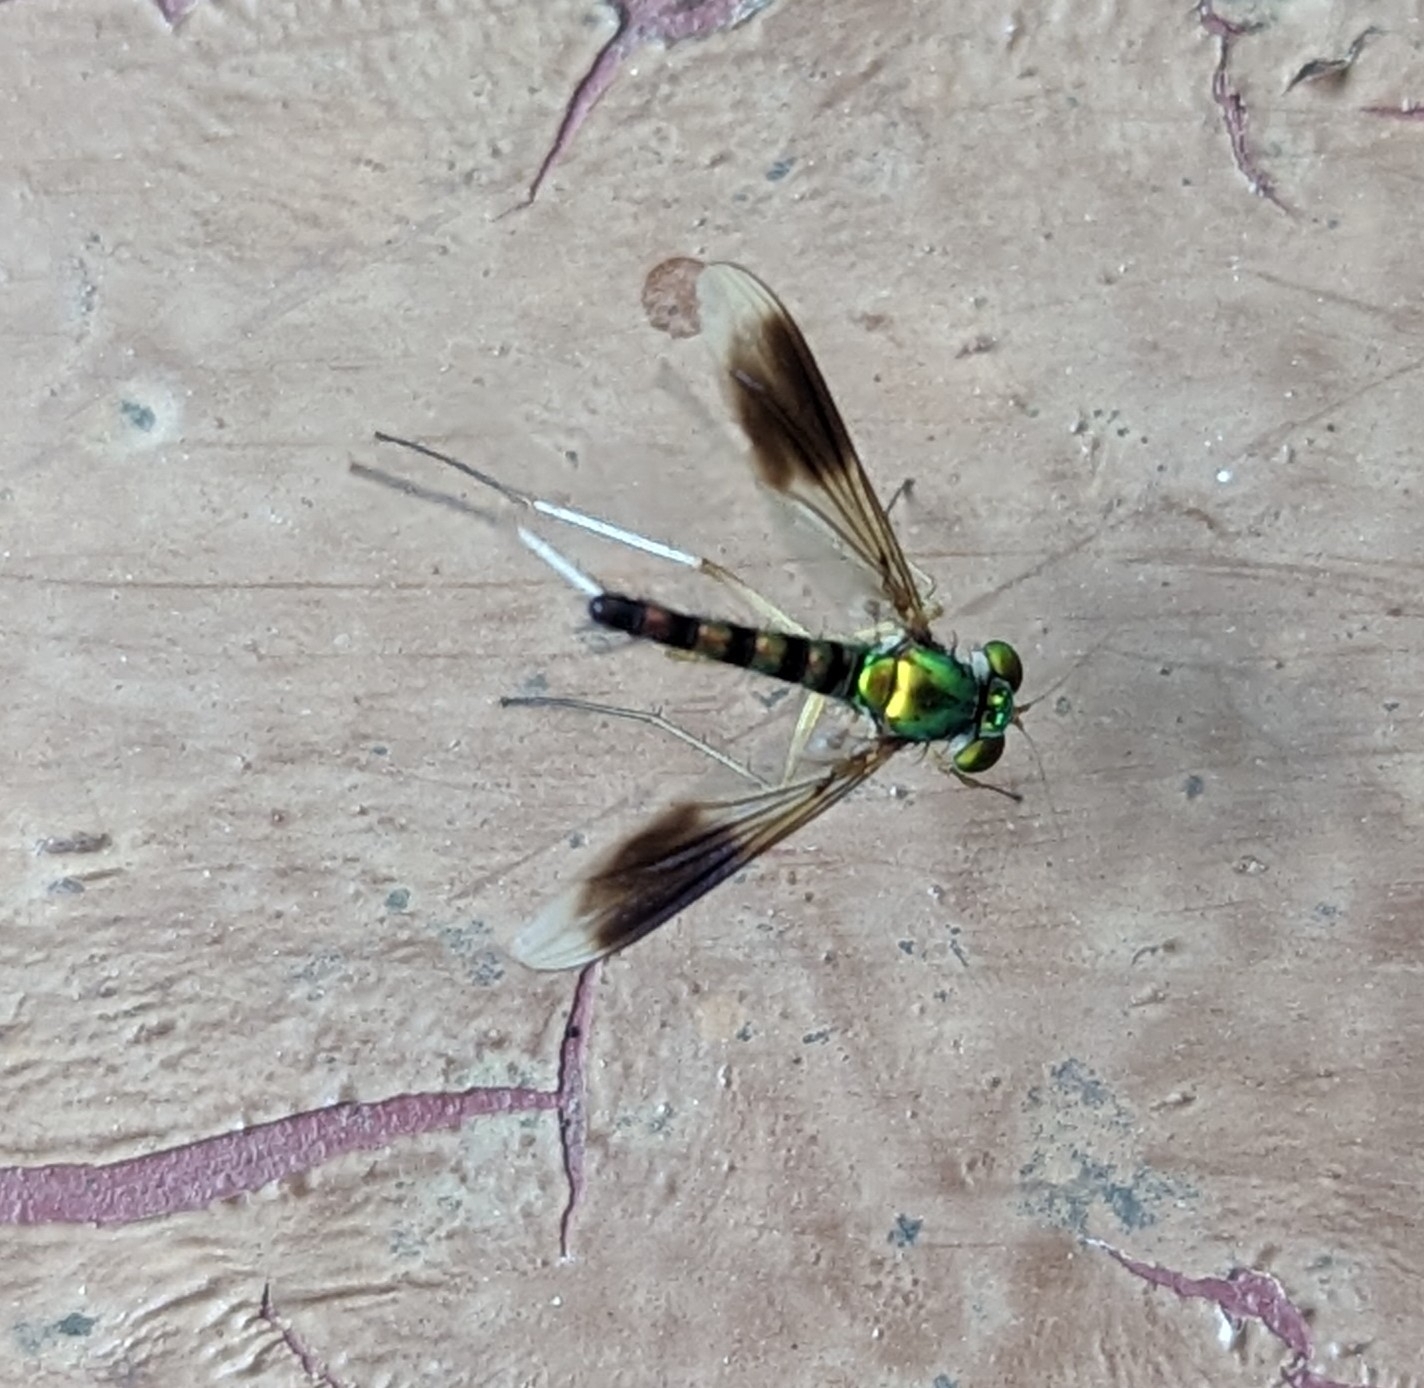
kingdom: Animalia
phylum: Arthropoda
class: Insecta
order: Diptera
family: Dolichopodidae
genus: Heteropsilopus
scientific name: Heteropsilopus vanus
